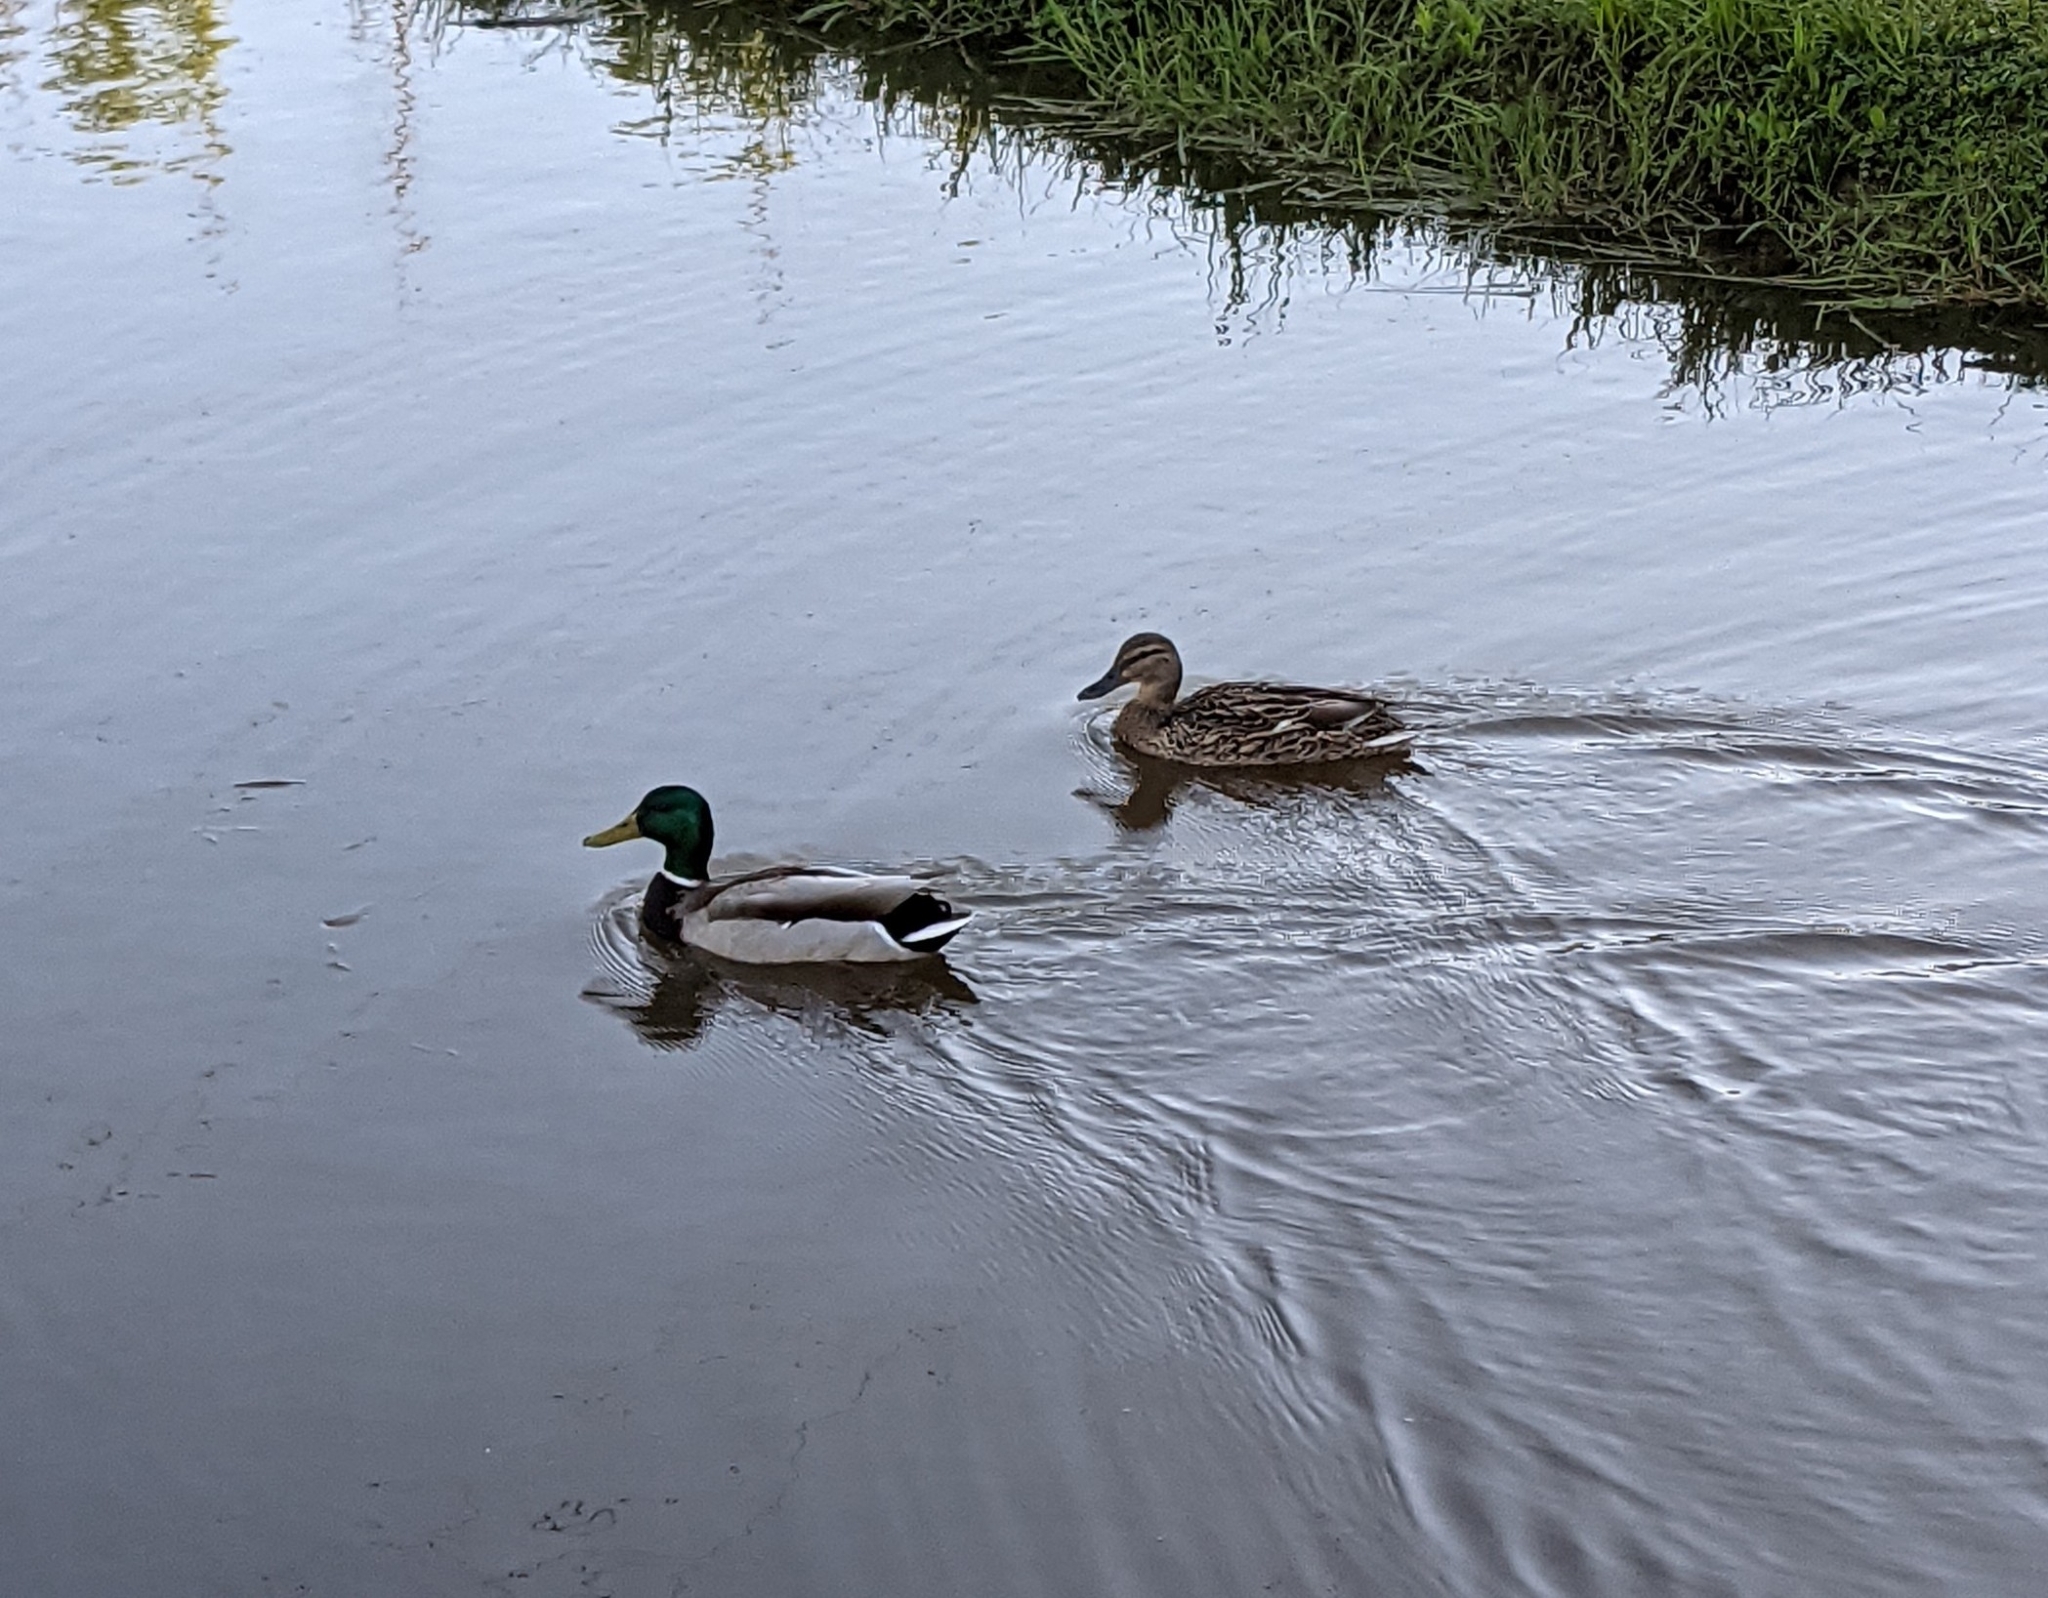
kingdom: Animalia
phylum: Chordata
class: Aves
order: Anseriformes
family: Anatidae
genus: Anas
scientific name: Anas platyrhynchos
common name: Mallard
